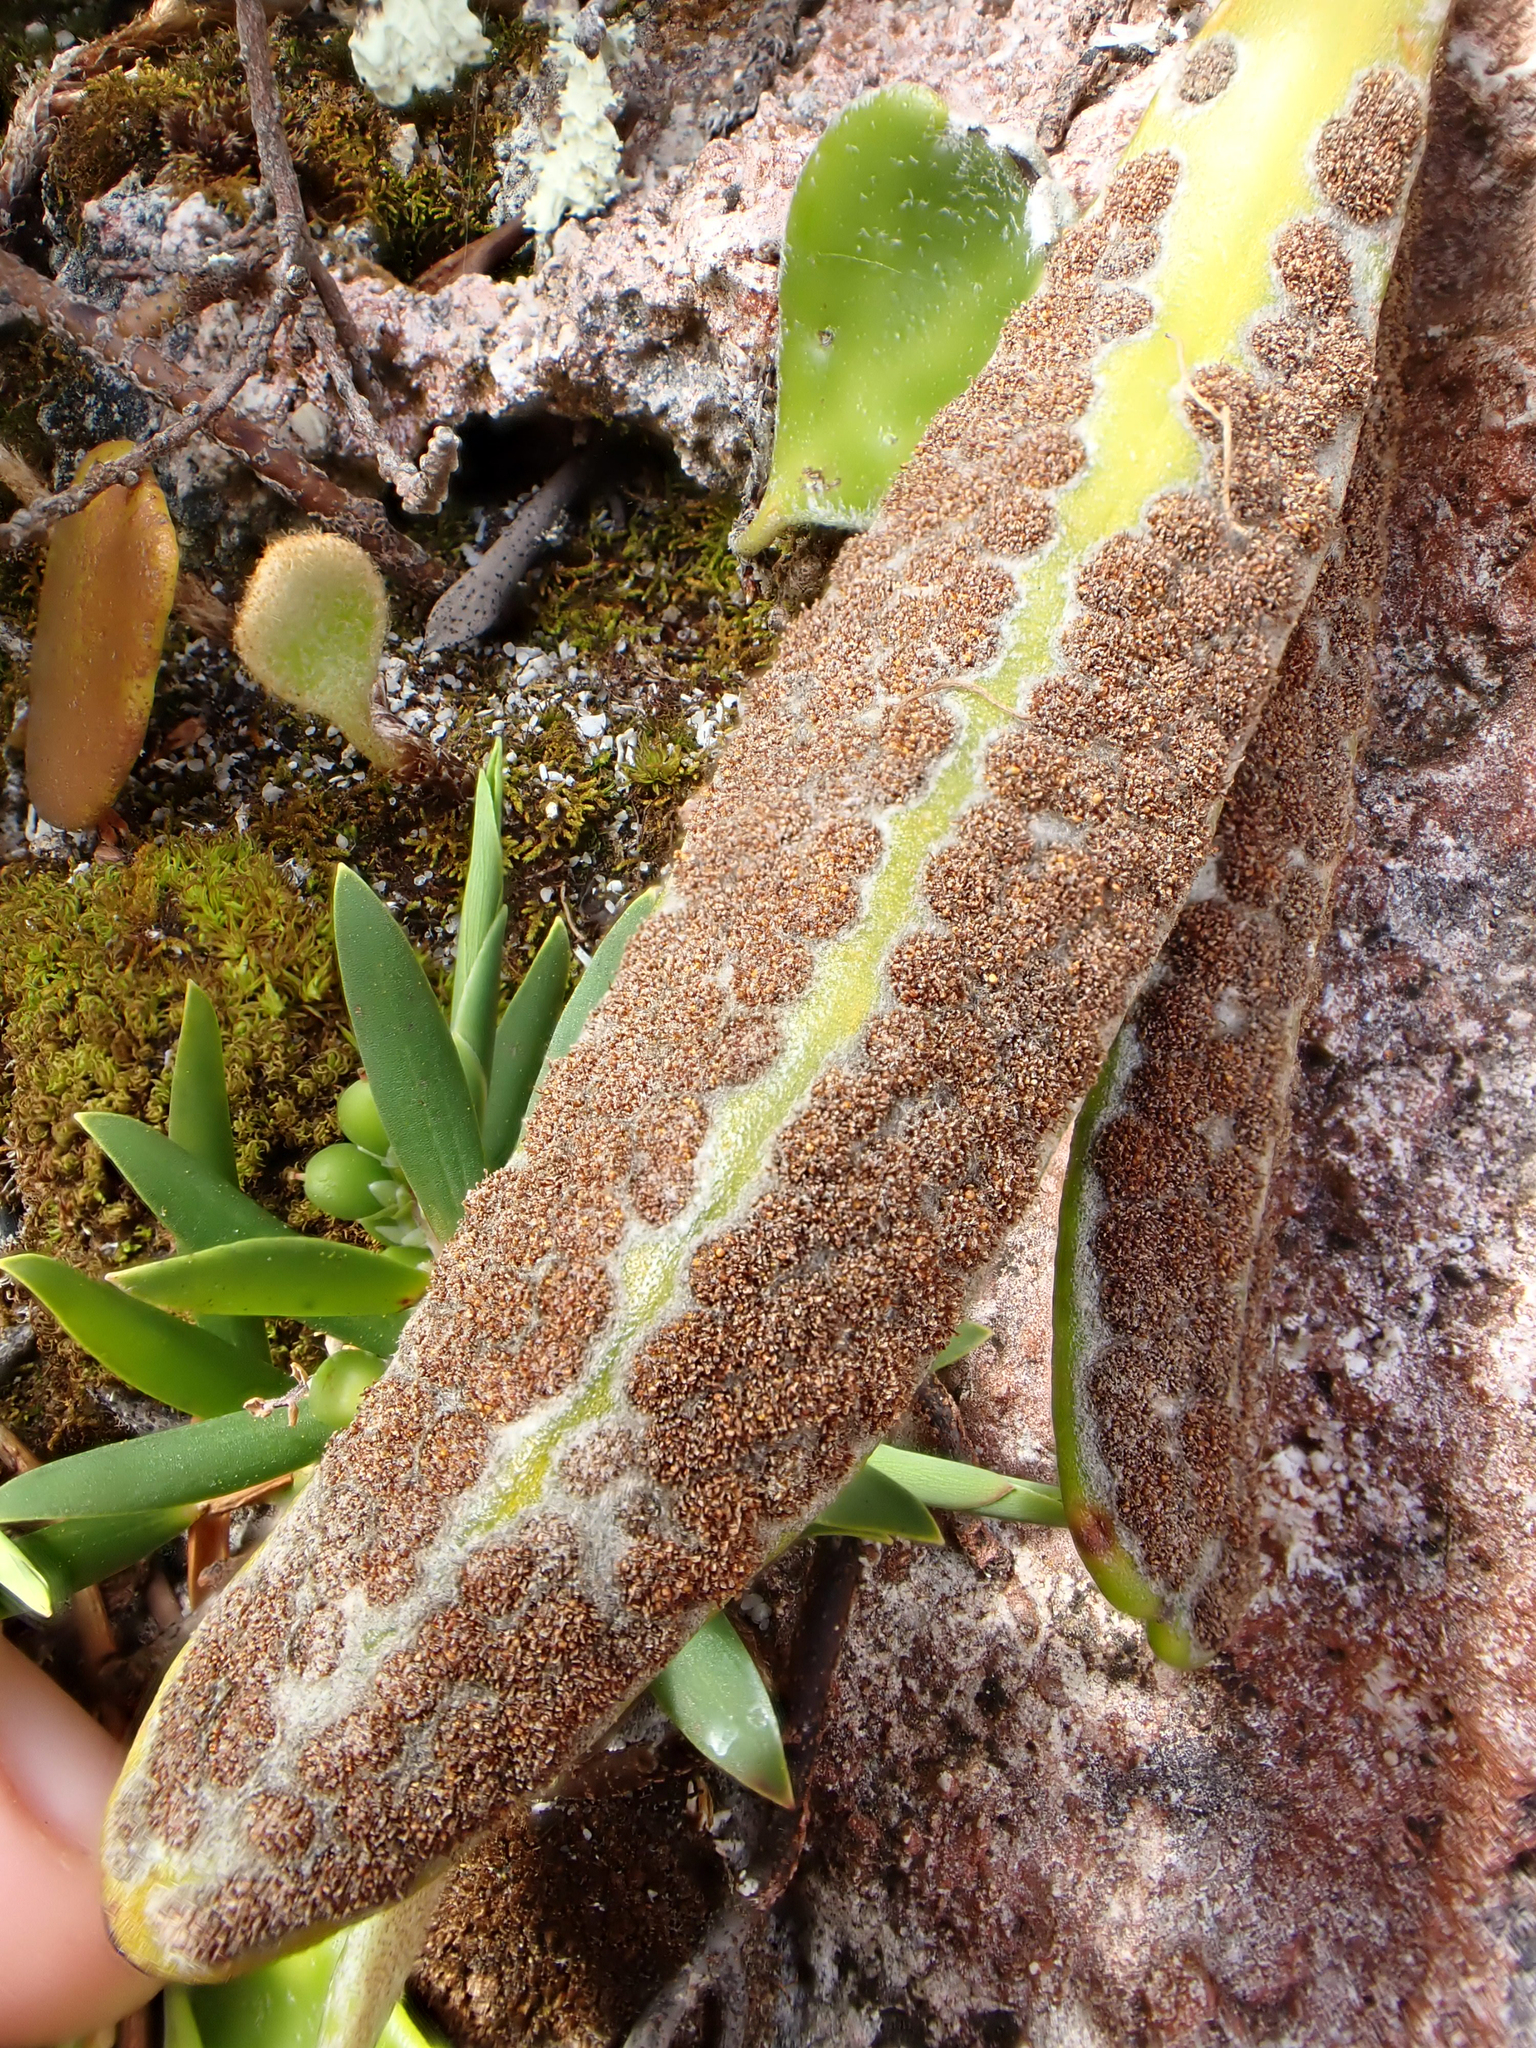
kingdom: Plantae
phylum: Tracheophyta
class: Polypodiopsida
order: Polypodiales
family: Polypodiaceae
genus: Pyrrosia
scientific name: Pyrrosia eleagnifolia
